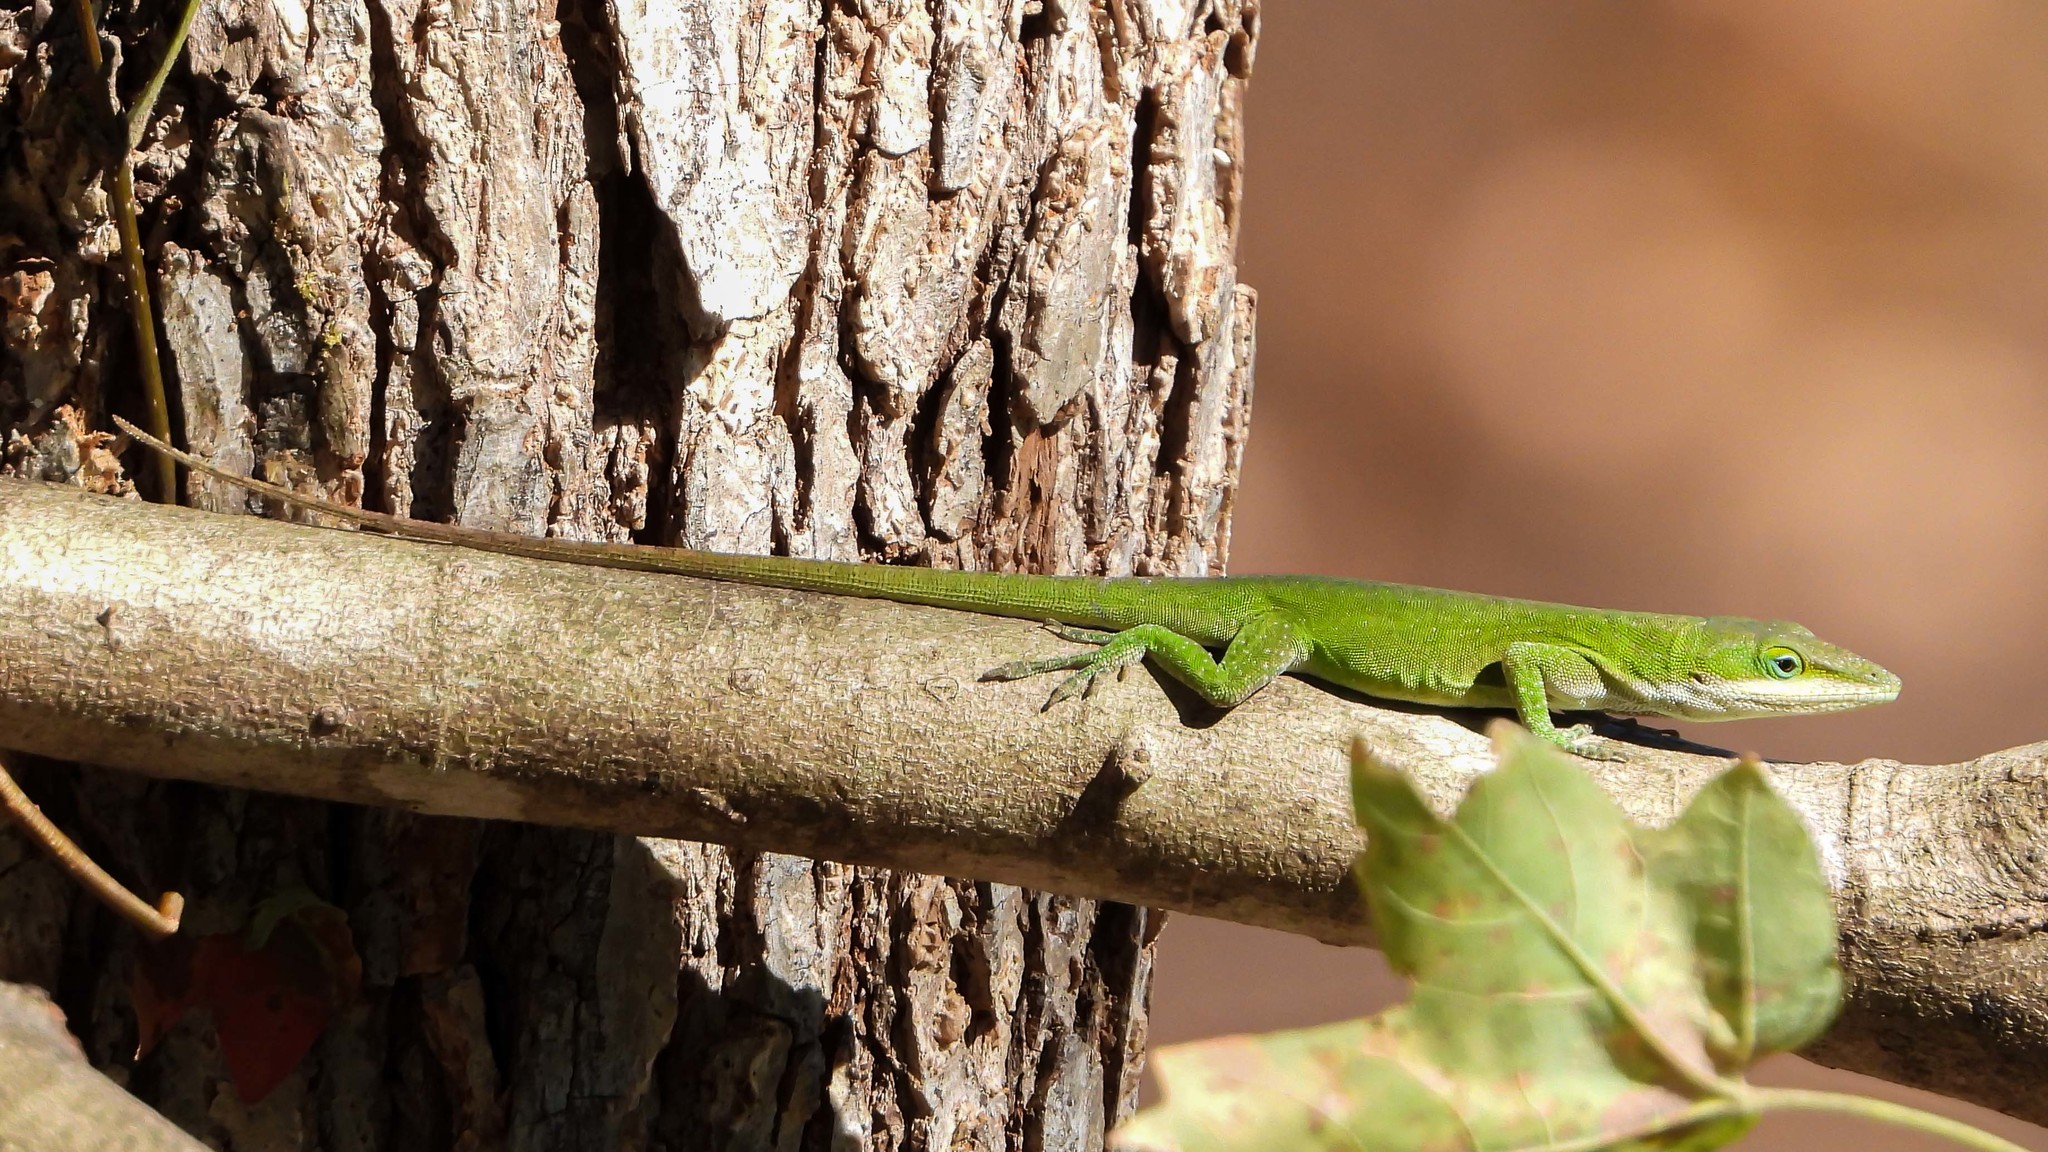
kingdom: Animalia
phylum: Chordata
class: Squamata
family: Dactyloidae
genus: Anolis
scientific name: Anolis carolinensis
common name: Green anole
